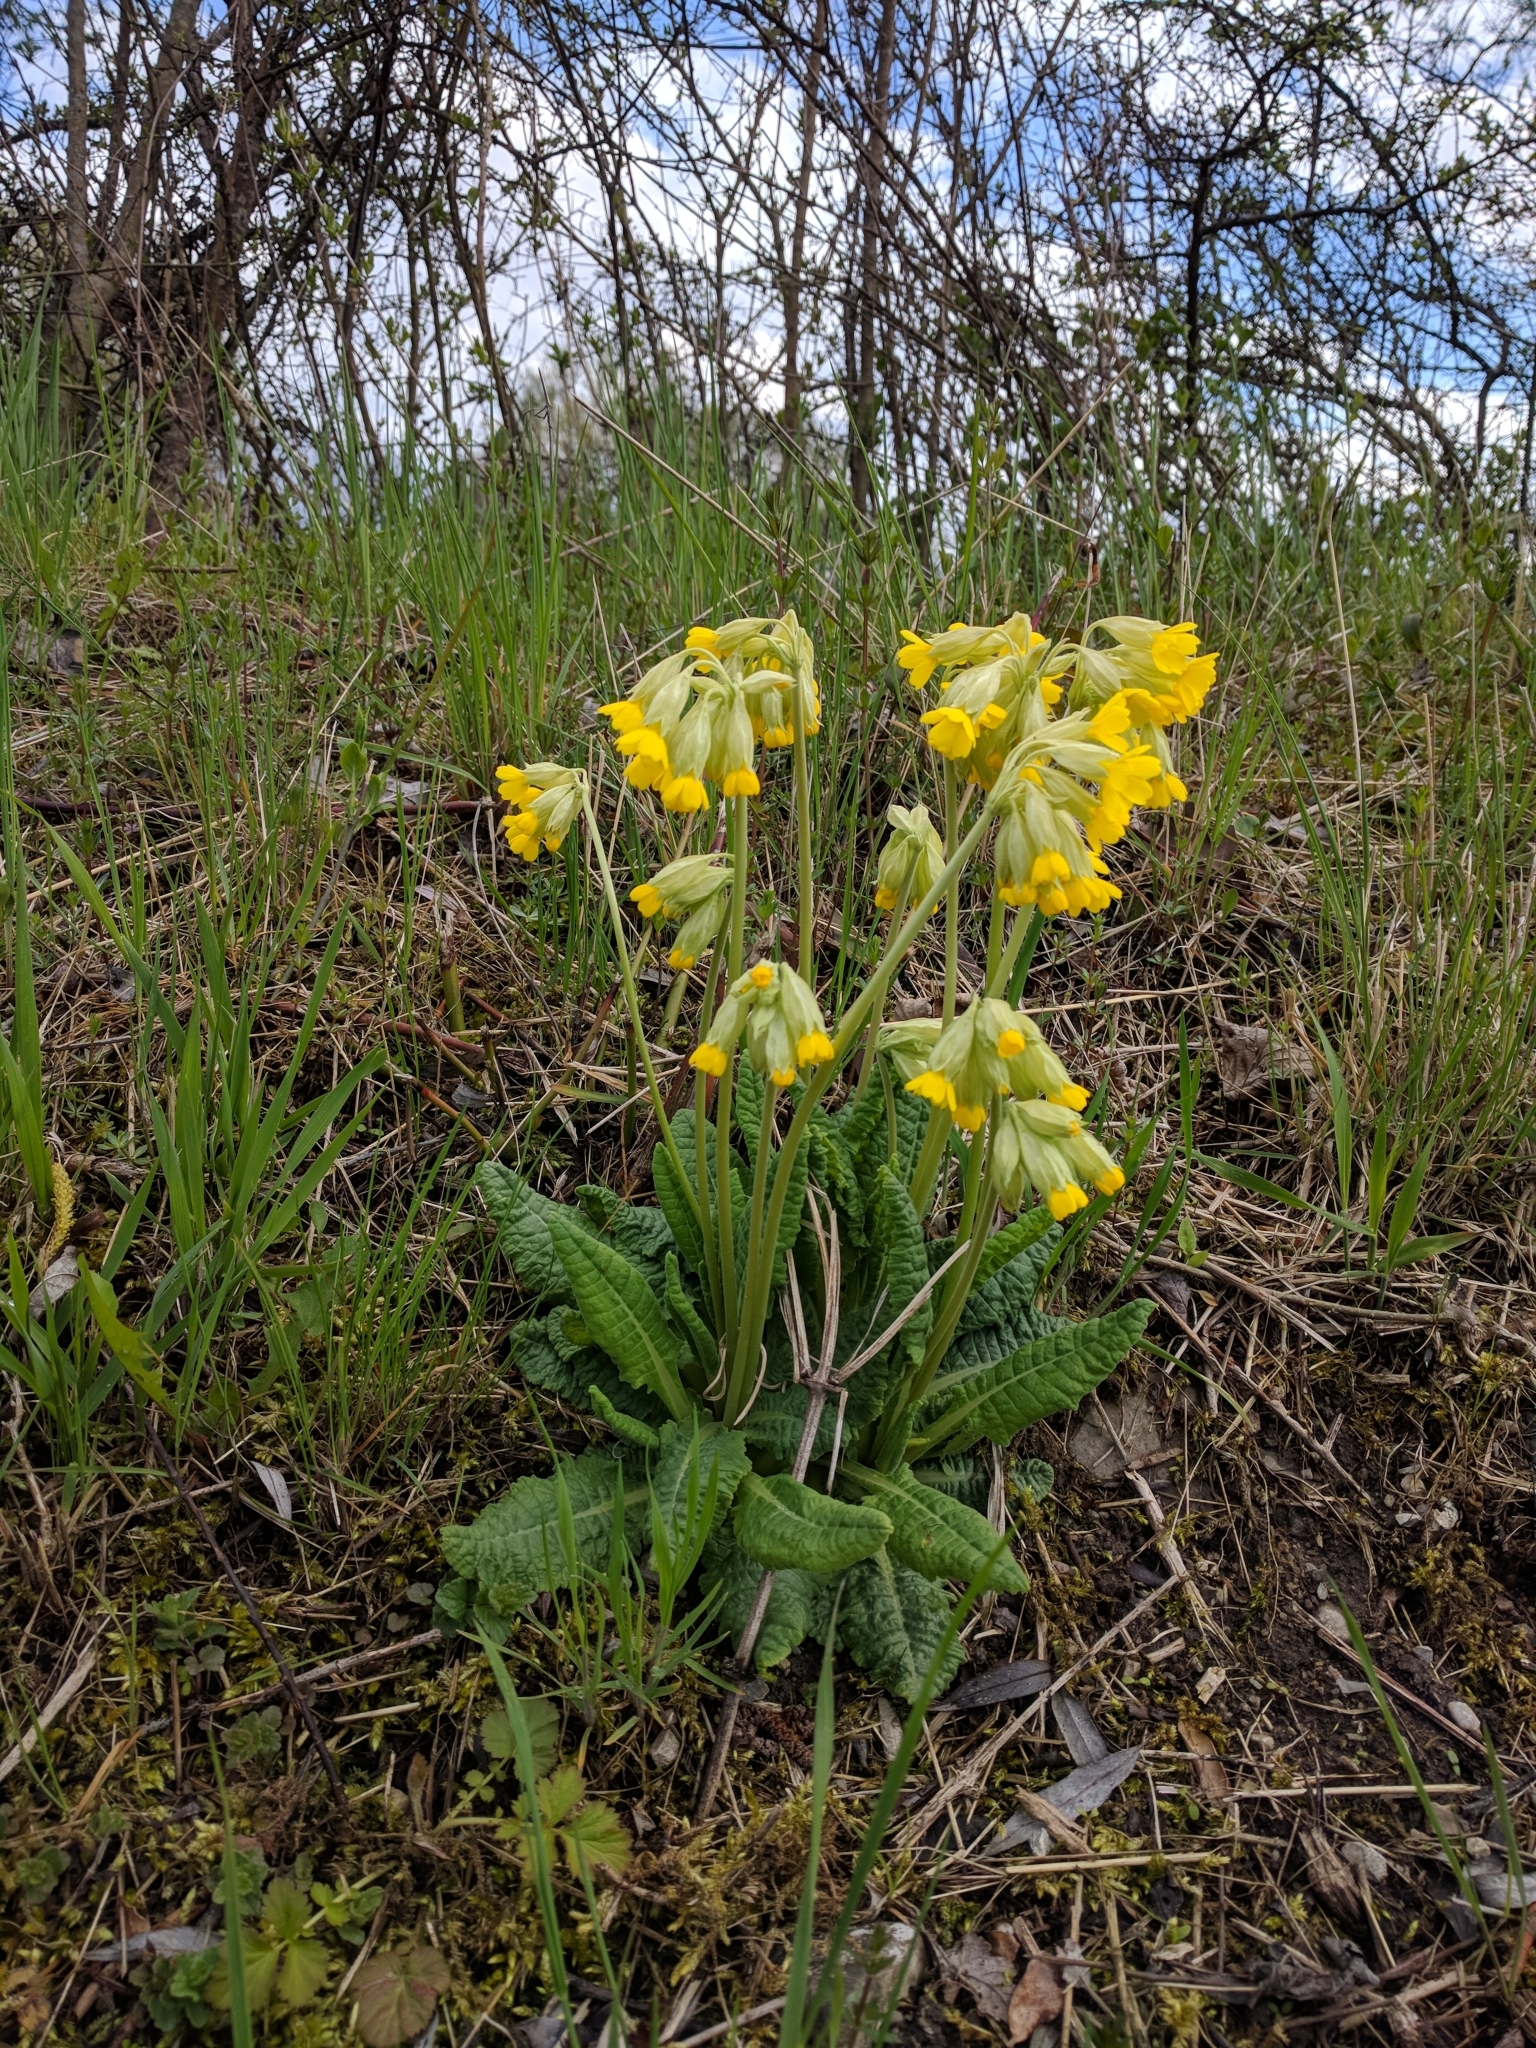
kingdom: Plantae
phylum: Tracheophyta
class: Magnoliopsida
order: Ericales
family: Primulaceae
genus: Primula
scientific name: Primula veris
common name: Cowslip
